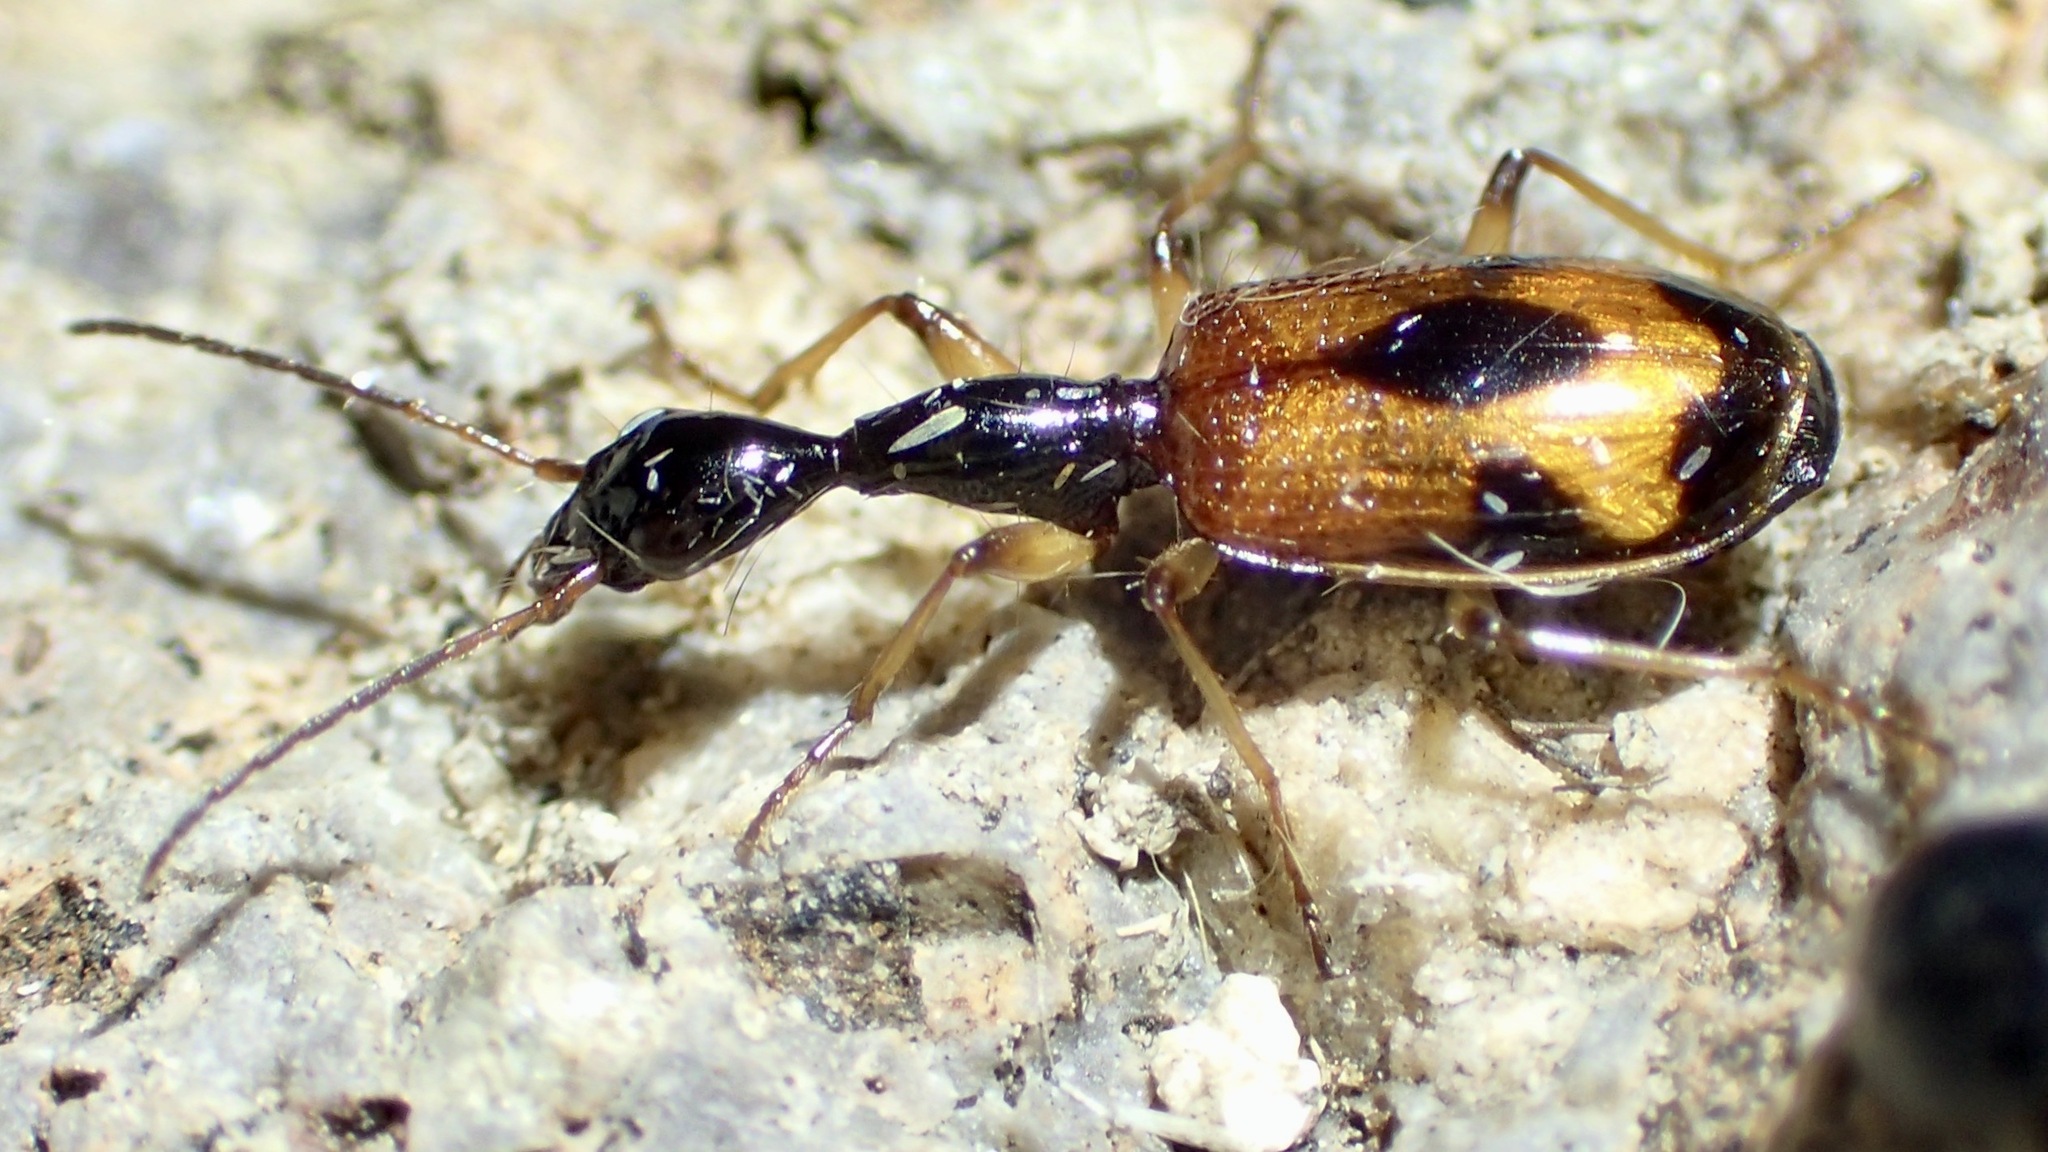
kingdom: Animalia
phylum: Arthropoda
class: Insecta
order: Coleoptera
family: Carabidae
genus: Colliuris
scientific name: Colliuris pensylvanica
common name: Long-necked ground beetle
